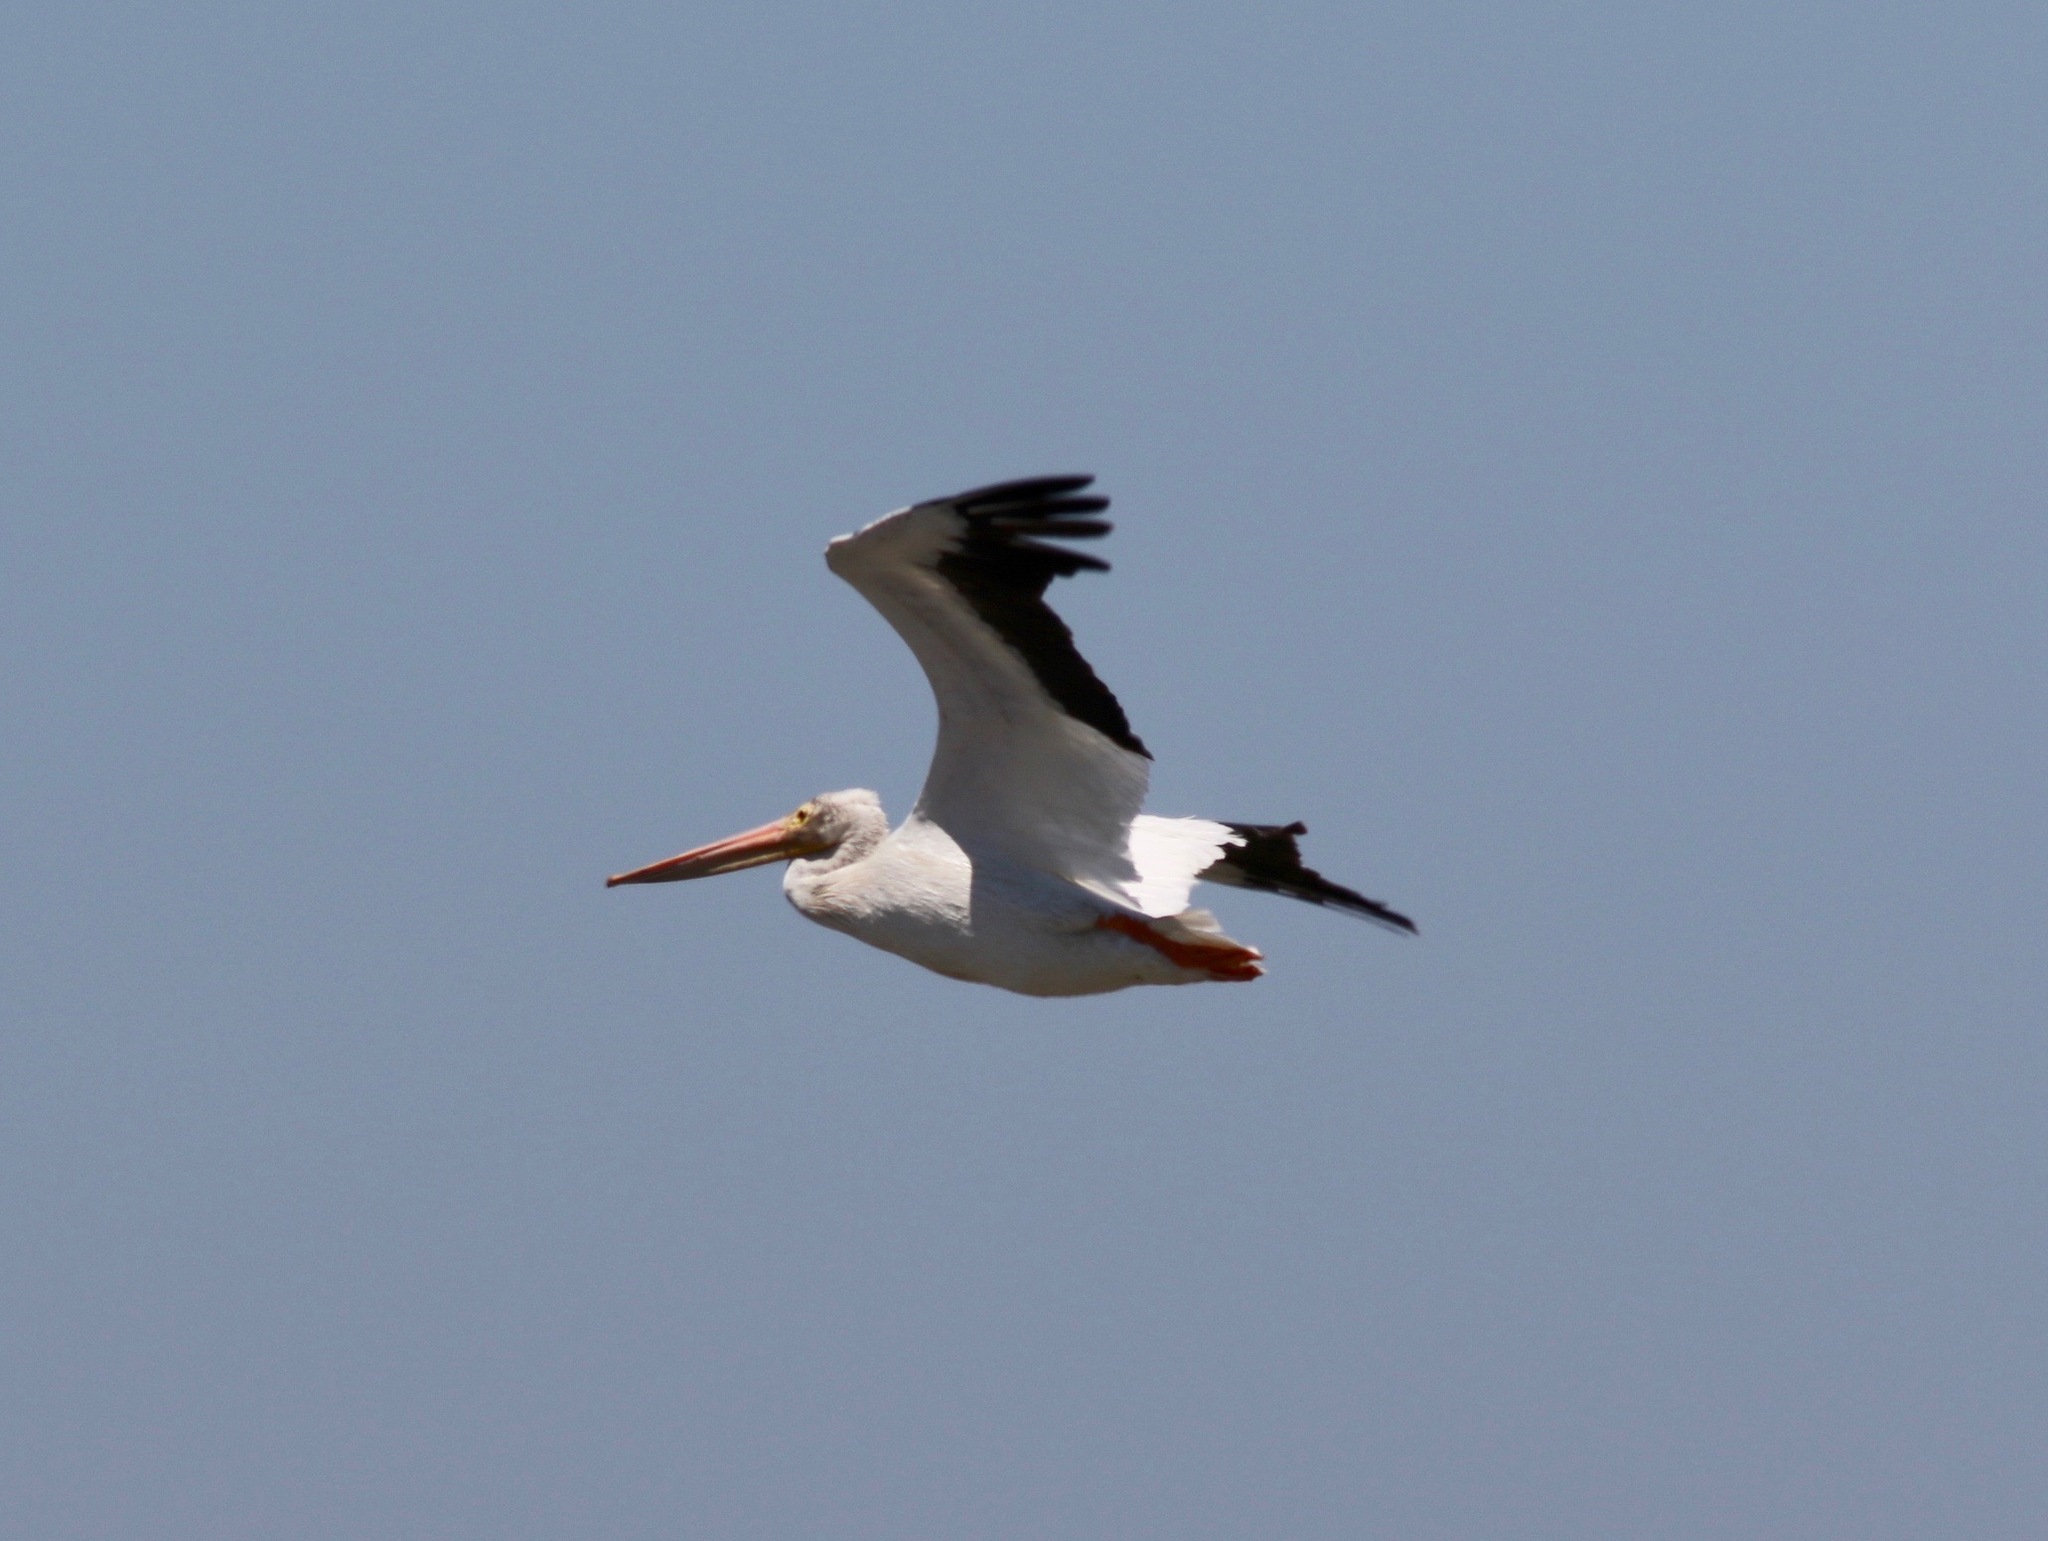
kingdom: Animalia
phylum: Chordata
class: Aves
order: Pelecaniformes
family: Pelecanidae
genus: Pelecanus
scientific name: Pelecanus erythrorhynchos
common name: American white pelican
